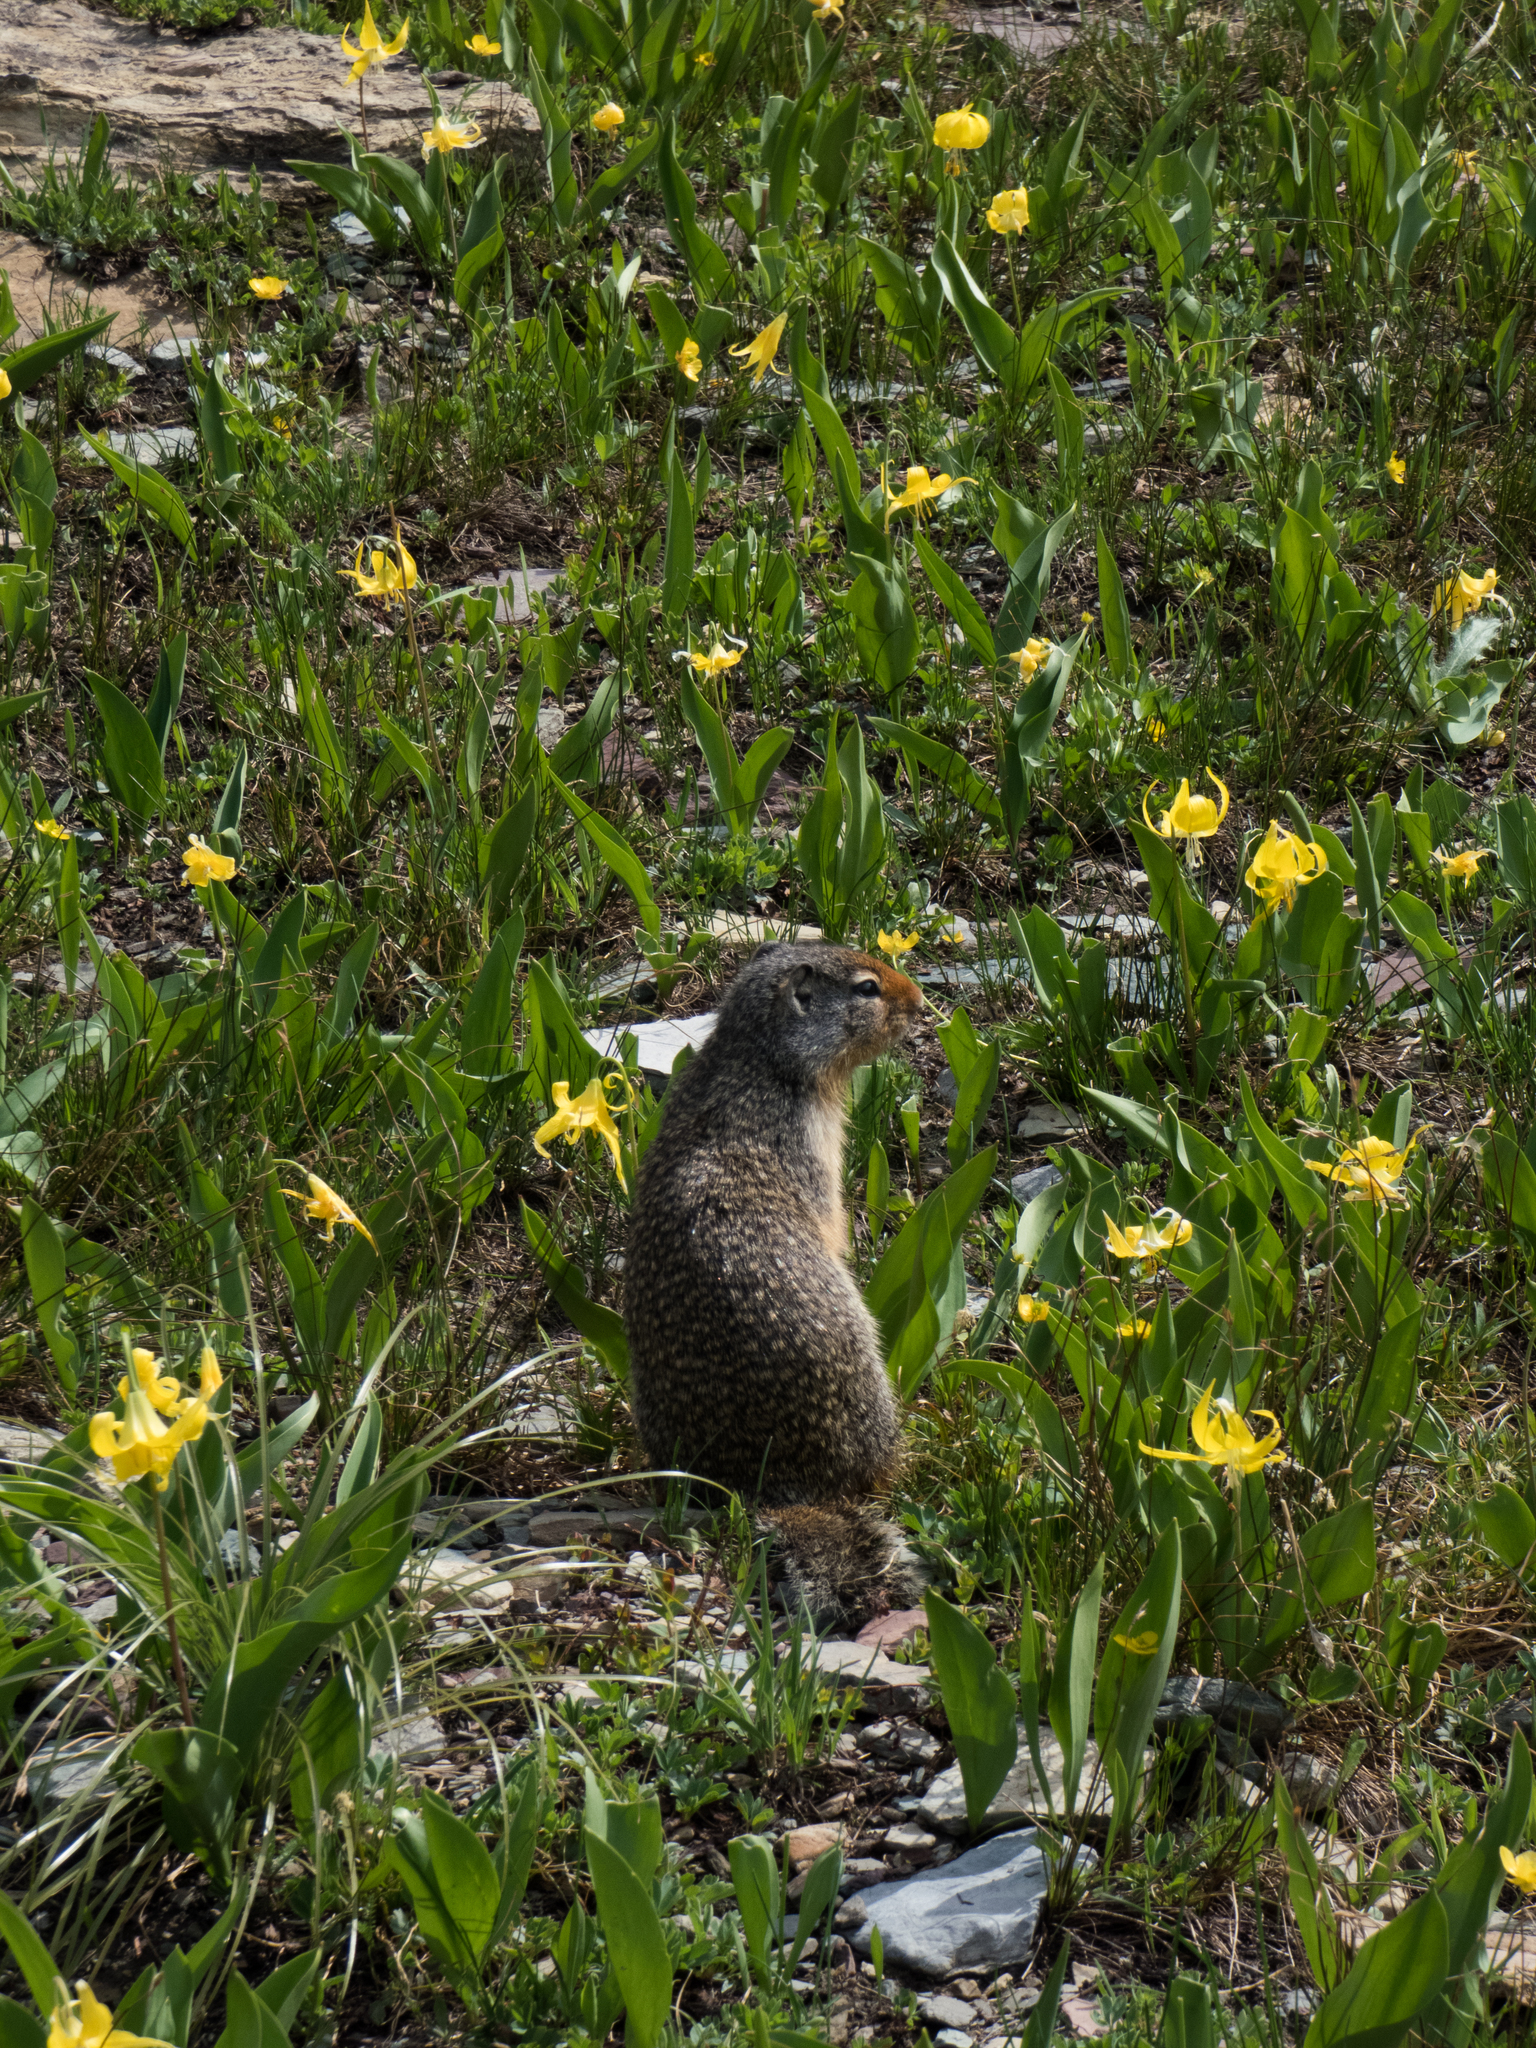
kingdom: Animalia
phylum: Chordata
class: Mammalia
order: Rodentia
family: Sciuridae
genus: Urocitellus
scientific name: Urocitellus columbianus
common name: Columbian ground squirrel
